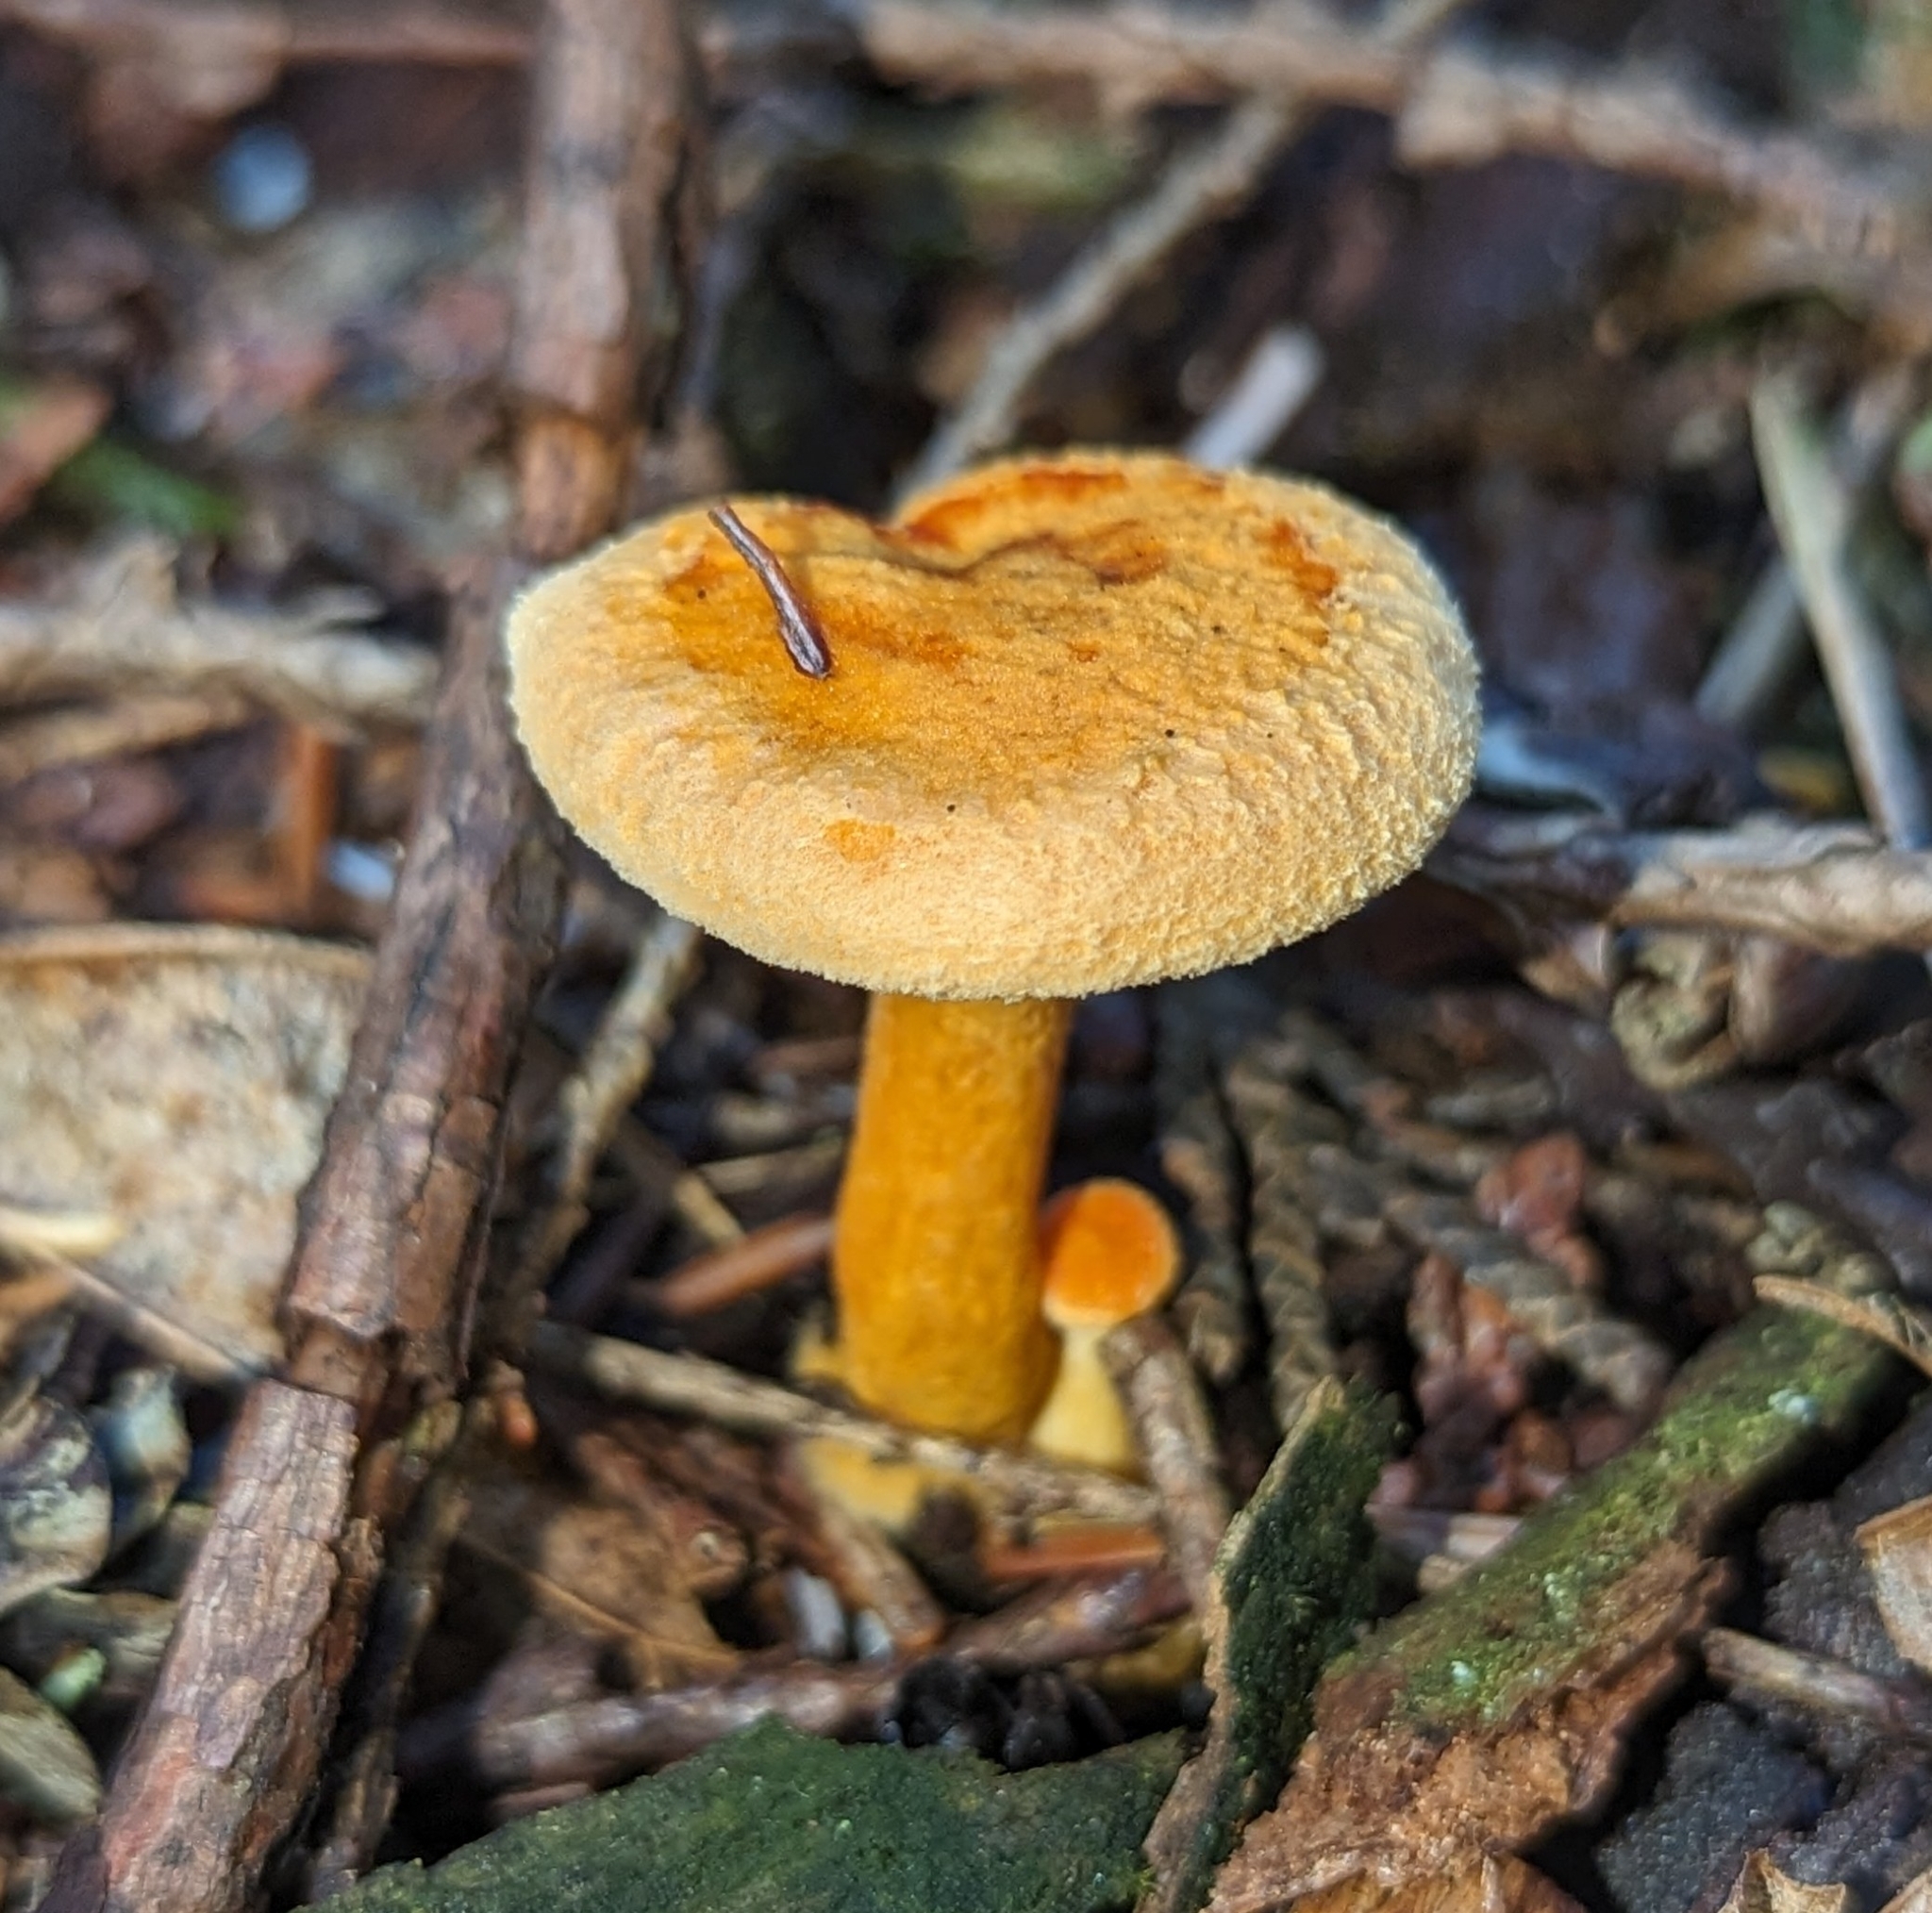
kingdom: Fungi
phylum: Basidiomycota
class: Agaricomycetes
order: Boletales
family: Hygrophoropsidaceae
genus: Hygrophoropsis
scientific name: Hygrophoropsis aurantiaca
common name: False chanterelle
